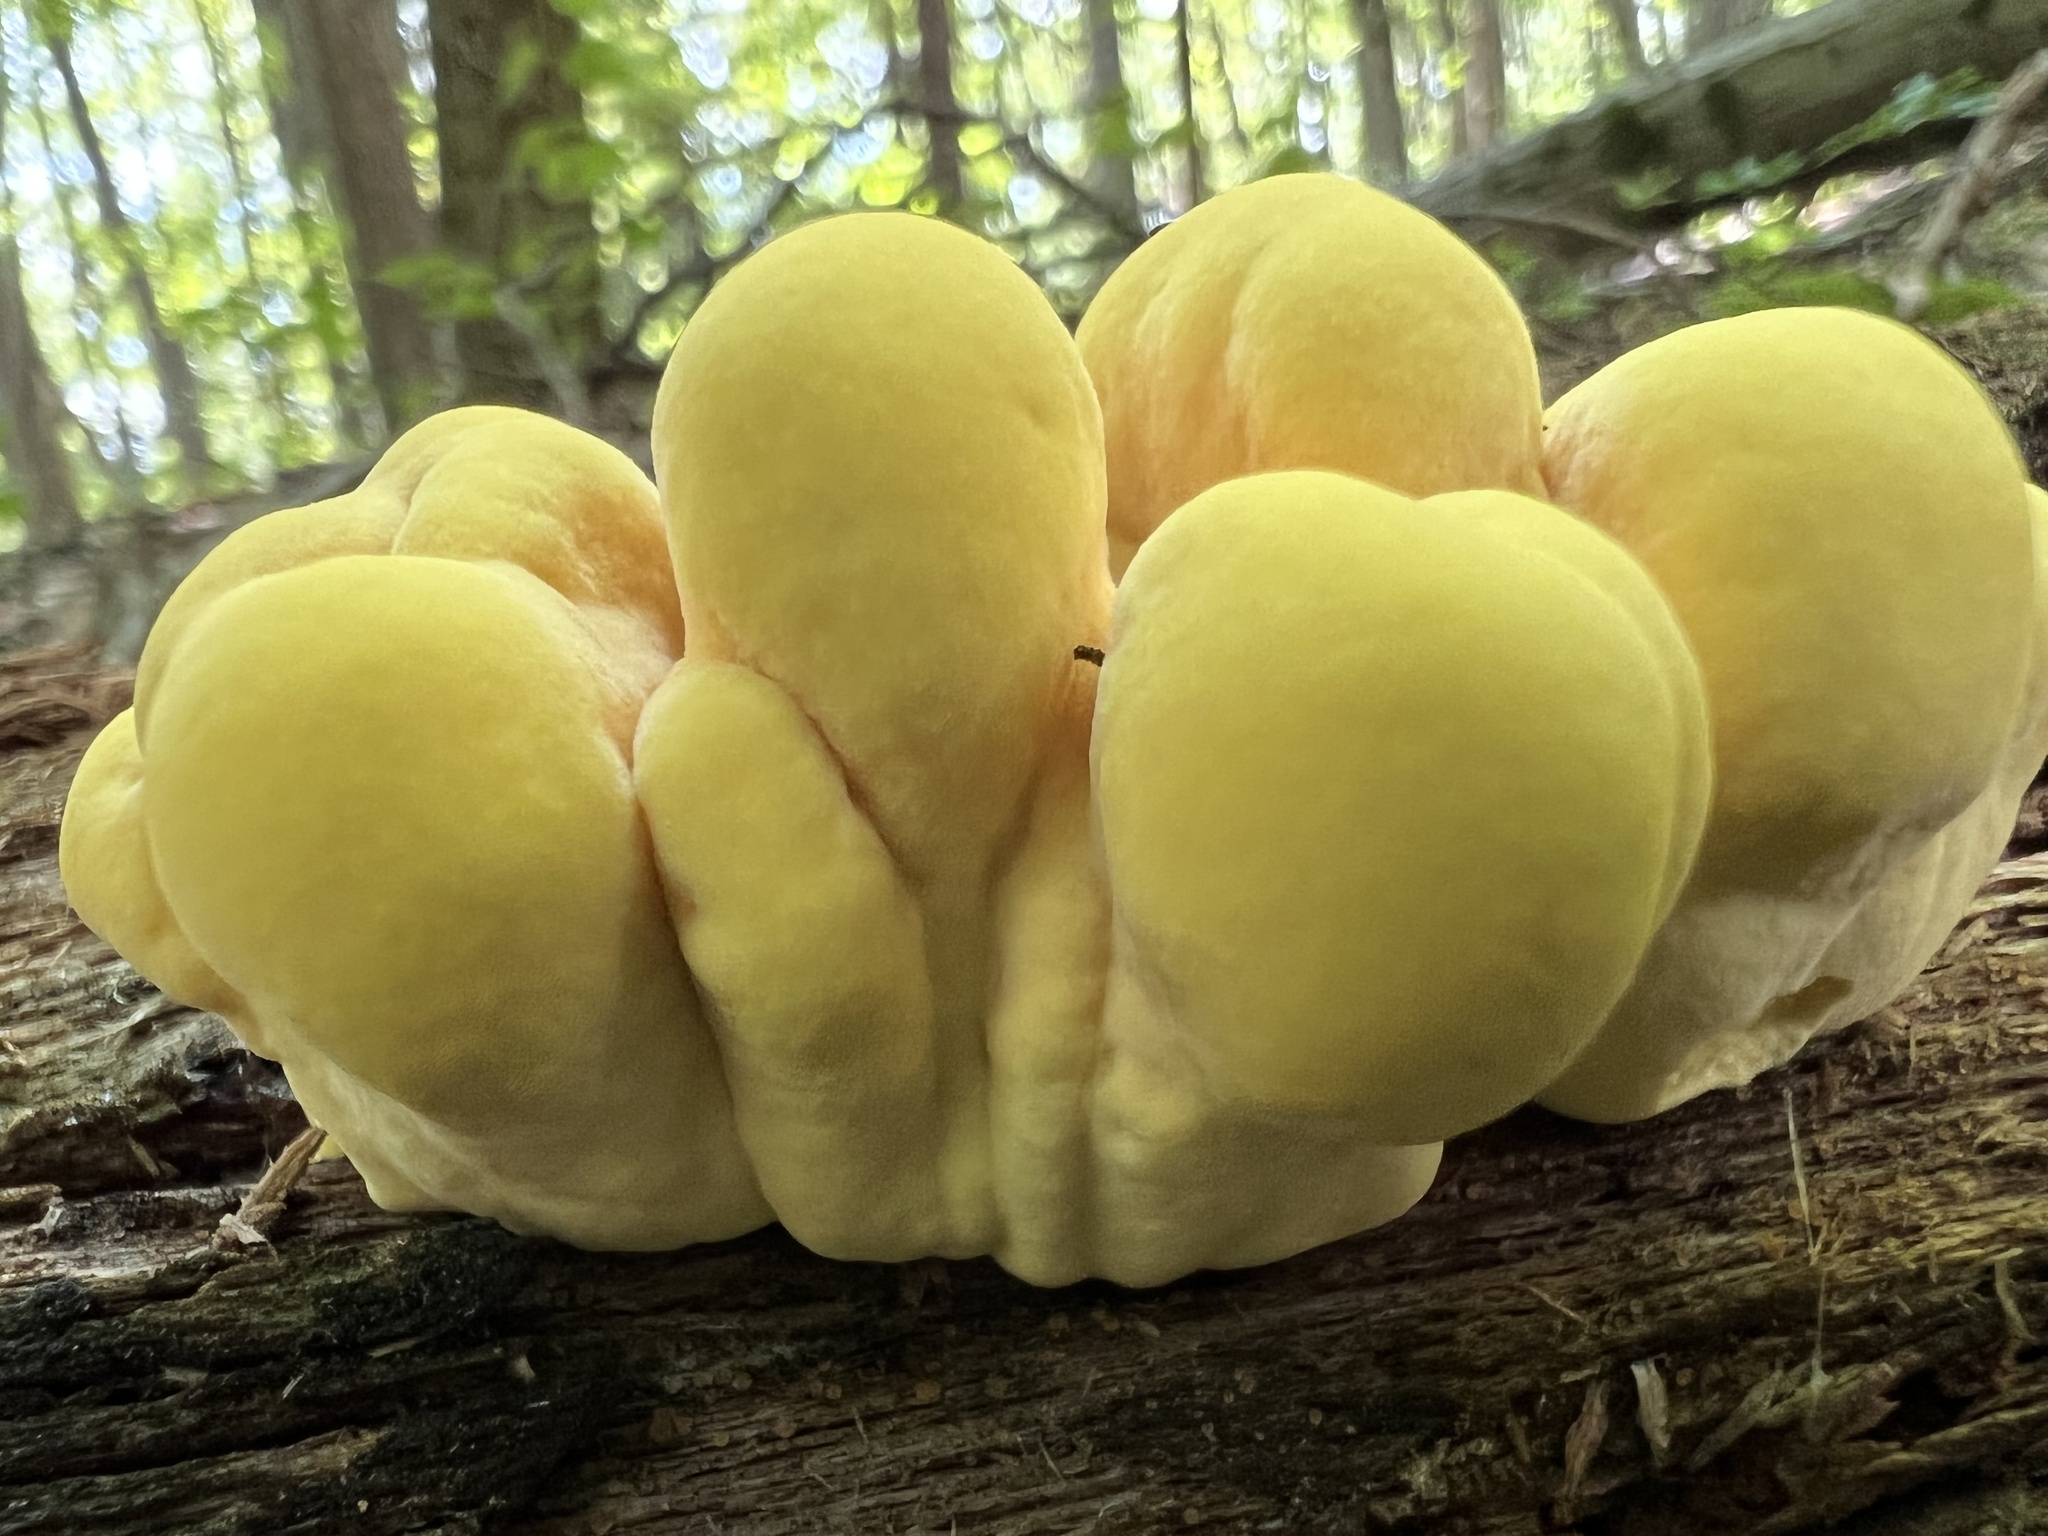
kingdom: Fungi
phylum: Basidiomycota
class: Agaricomycetes
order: Polyporales
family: Laetiporaceae
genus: Laetiporus
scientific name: Laetiporus sulphureus
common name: Chicken of the woods
